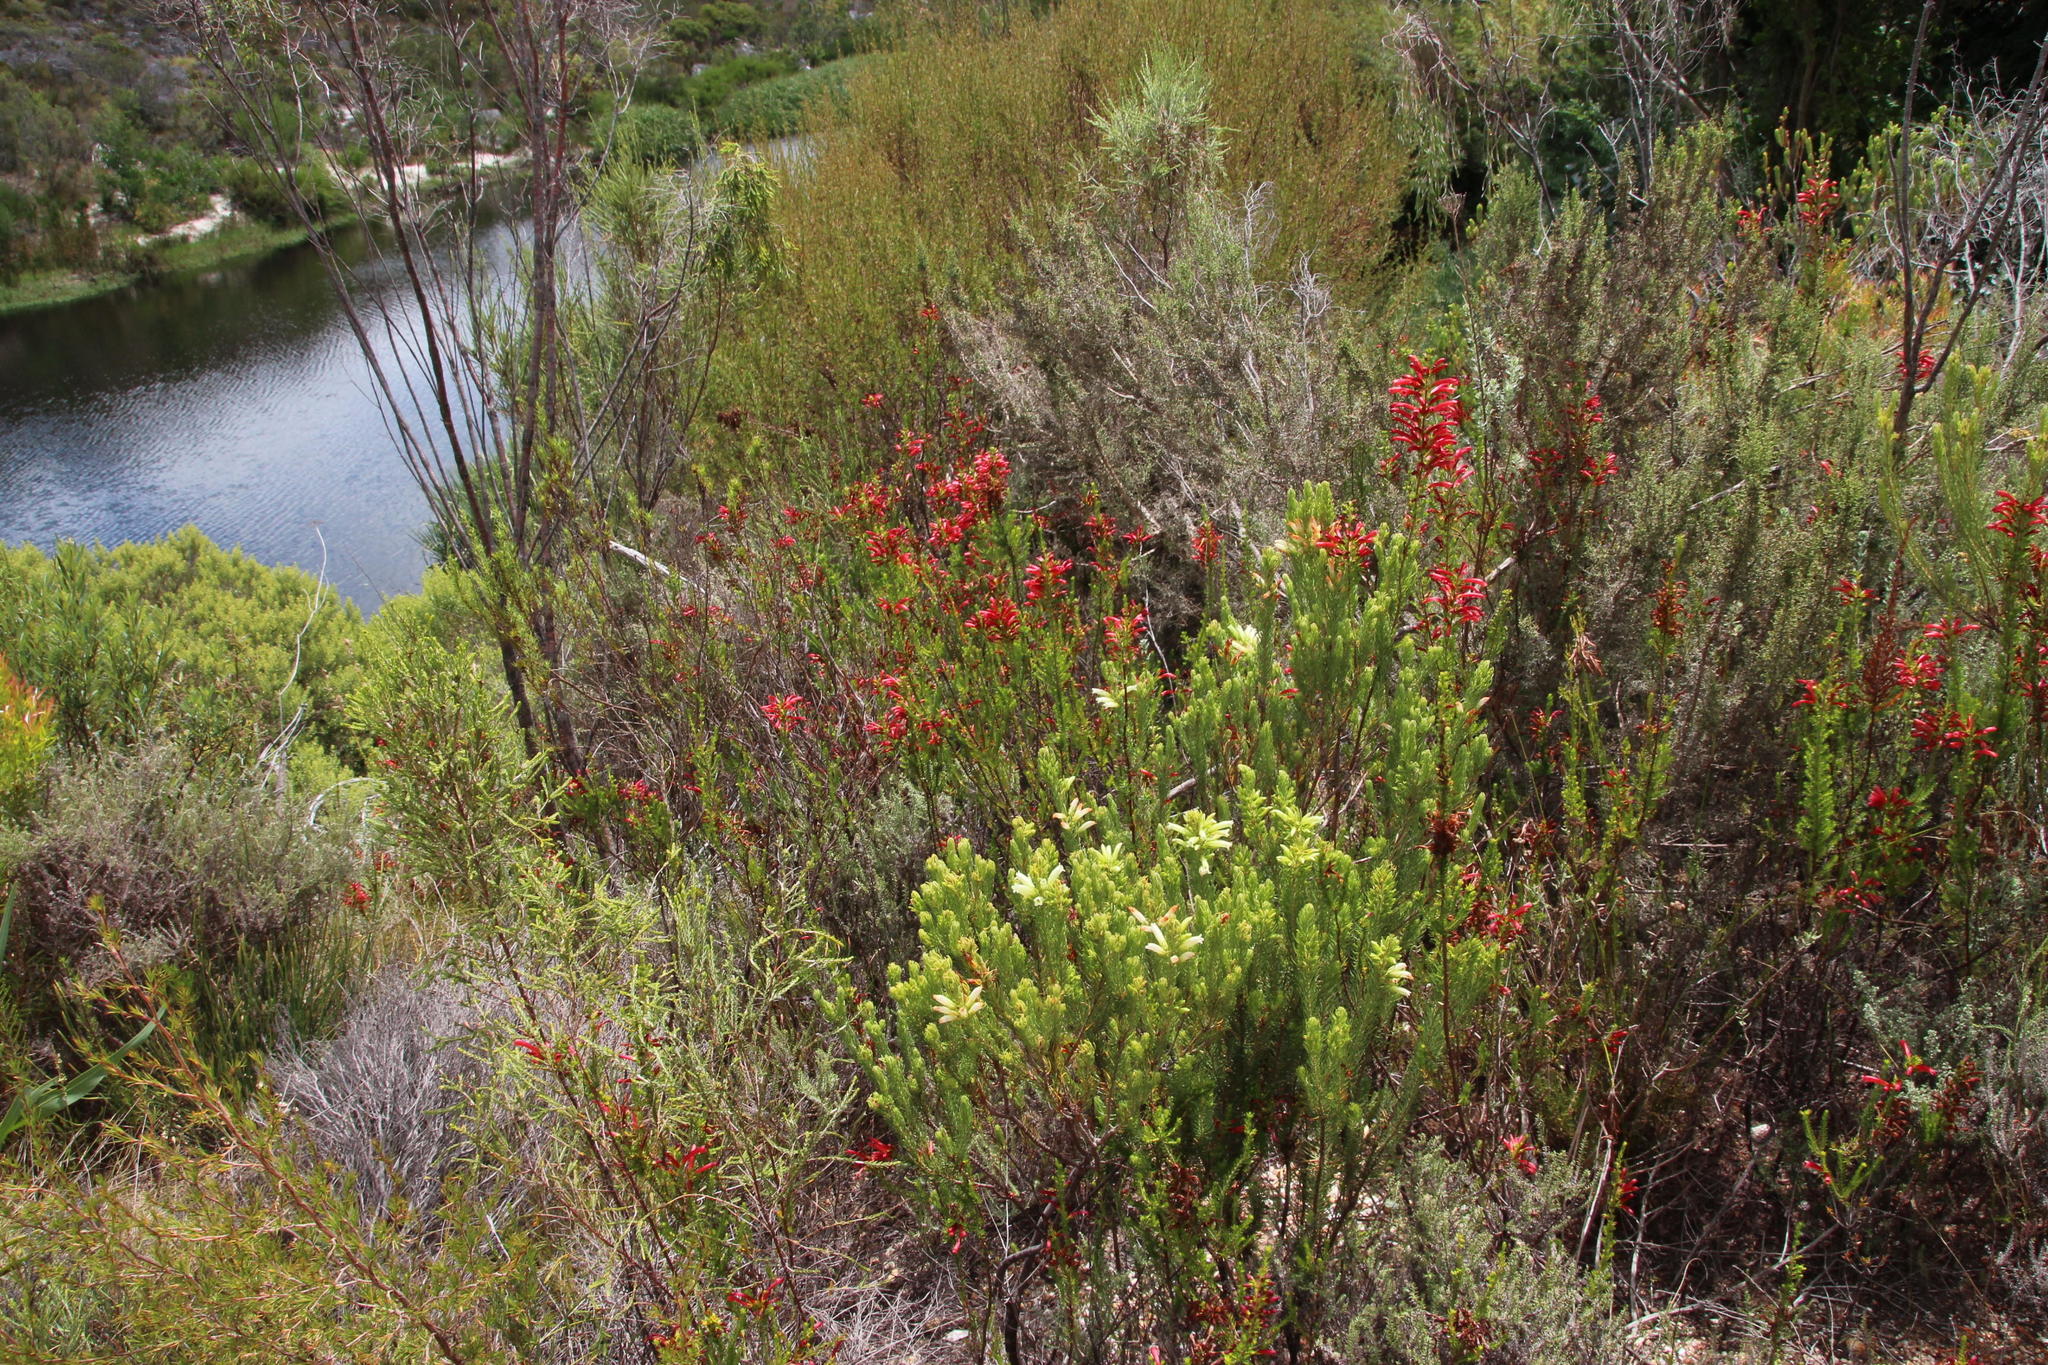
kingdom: Plantae
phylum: Tracheophyta
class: Magnoliopsida
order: Ericales
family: Ericaceae
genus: Erica
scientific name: Erica cruenta
